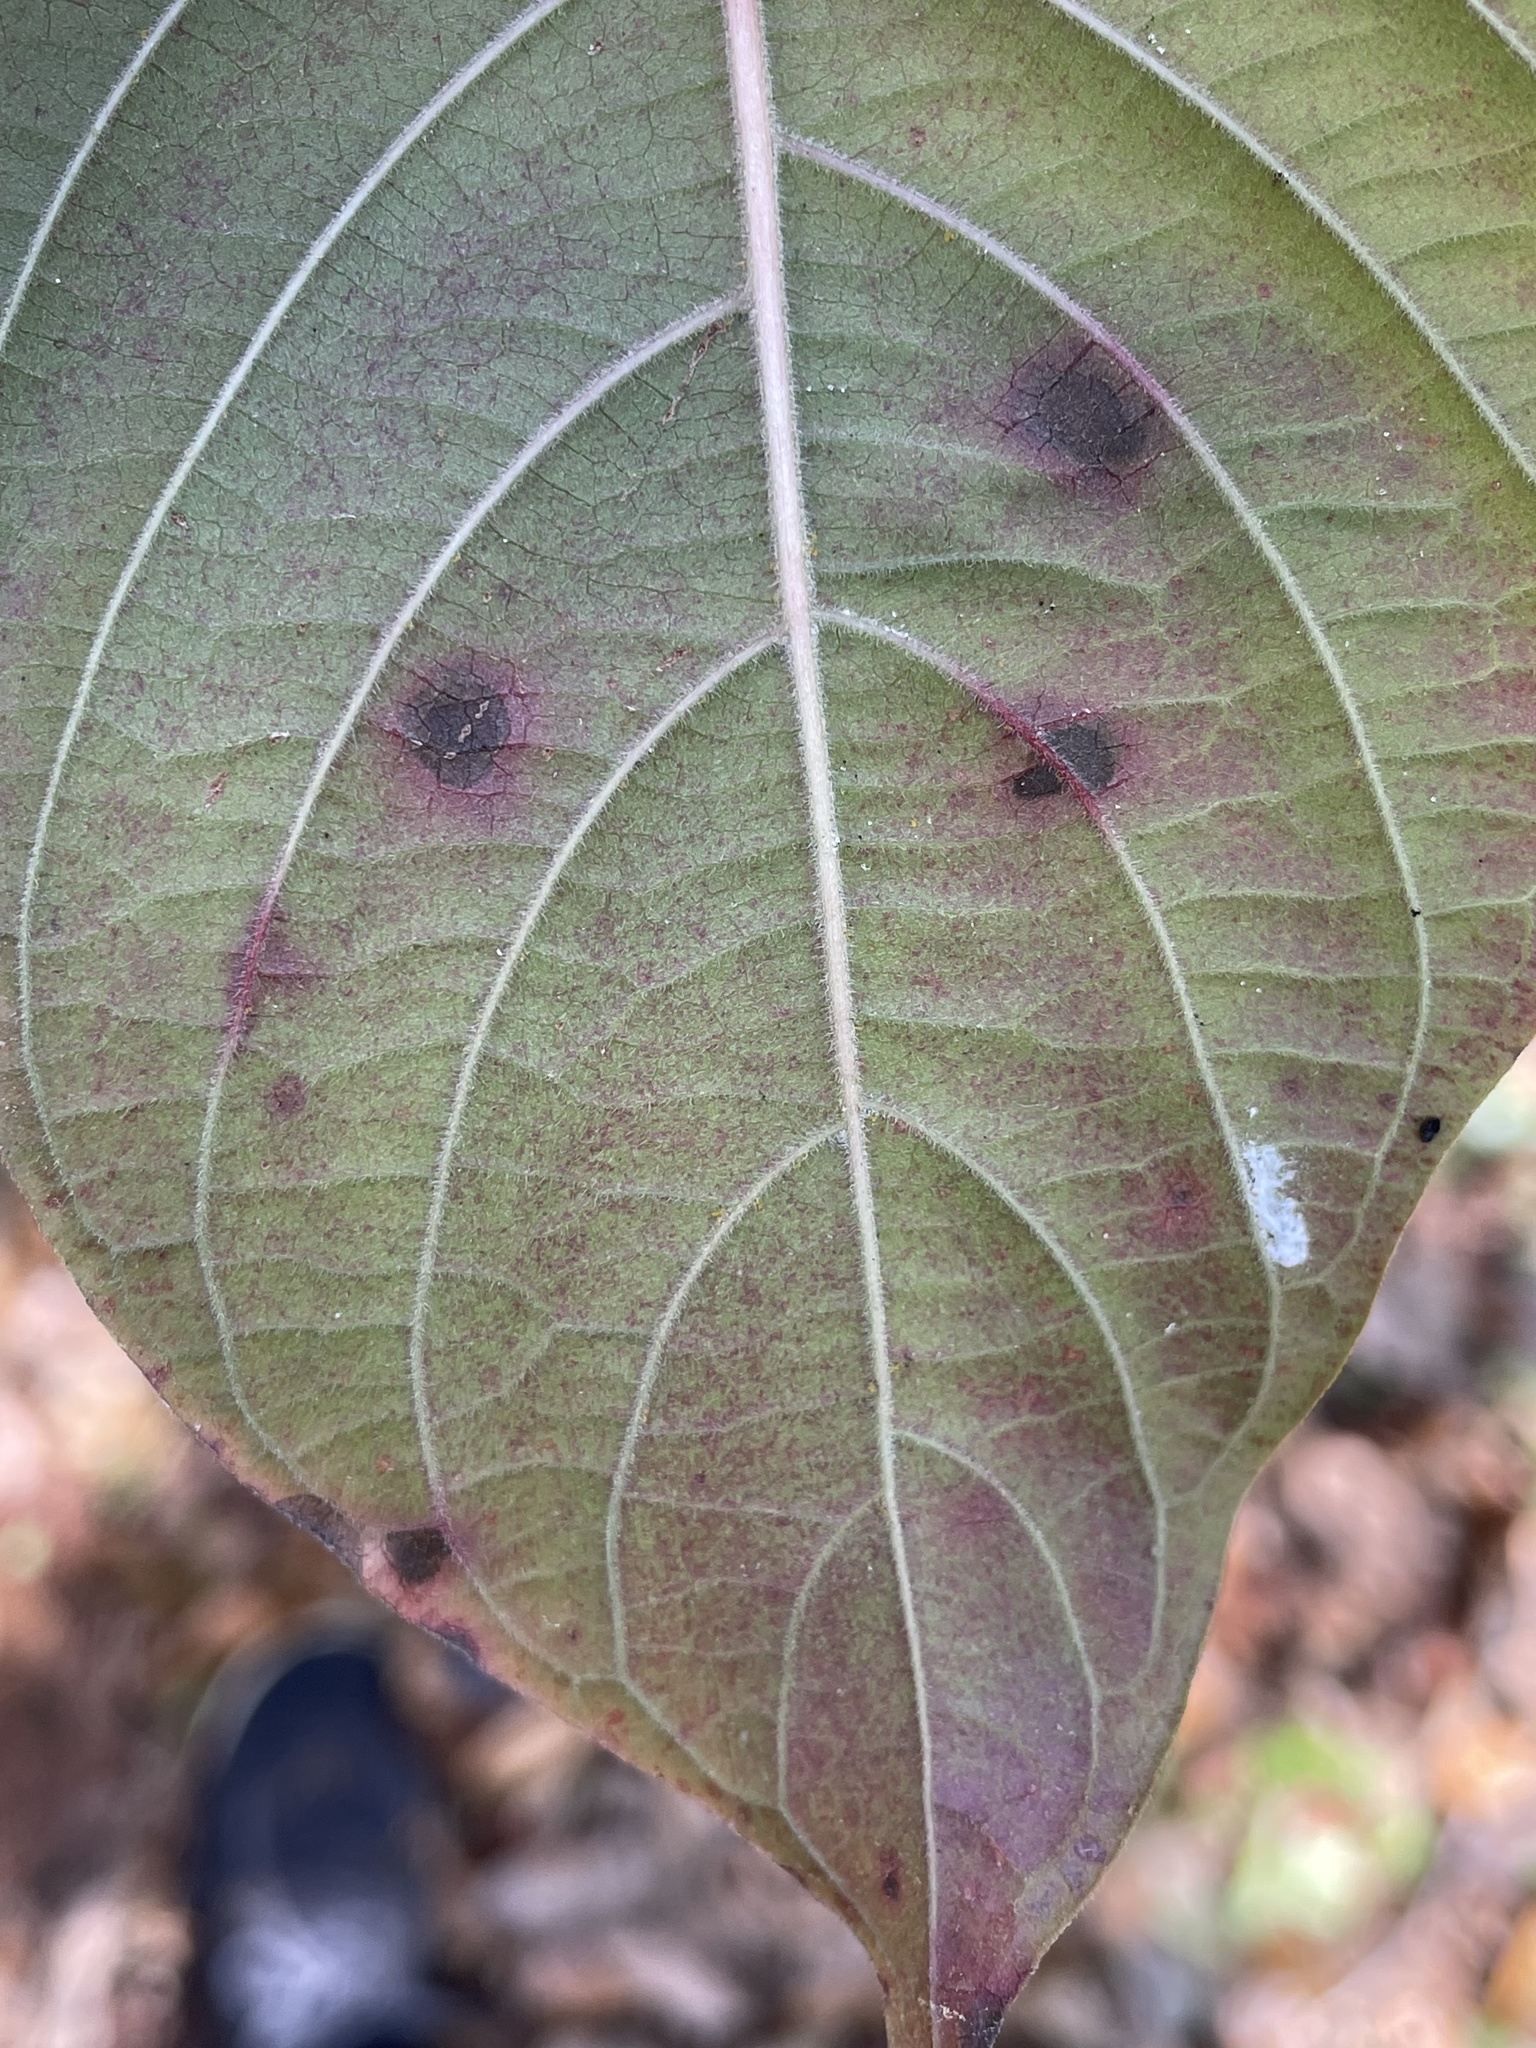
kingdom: Bacteria
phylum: Proteobacteria
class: Gammaproteobacteria
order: Xanthomonadales
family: Xanthomonadaceae
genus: Xanthomonas
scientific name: Xanthomonas
